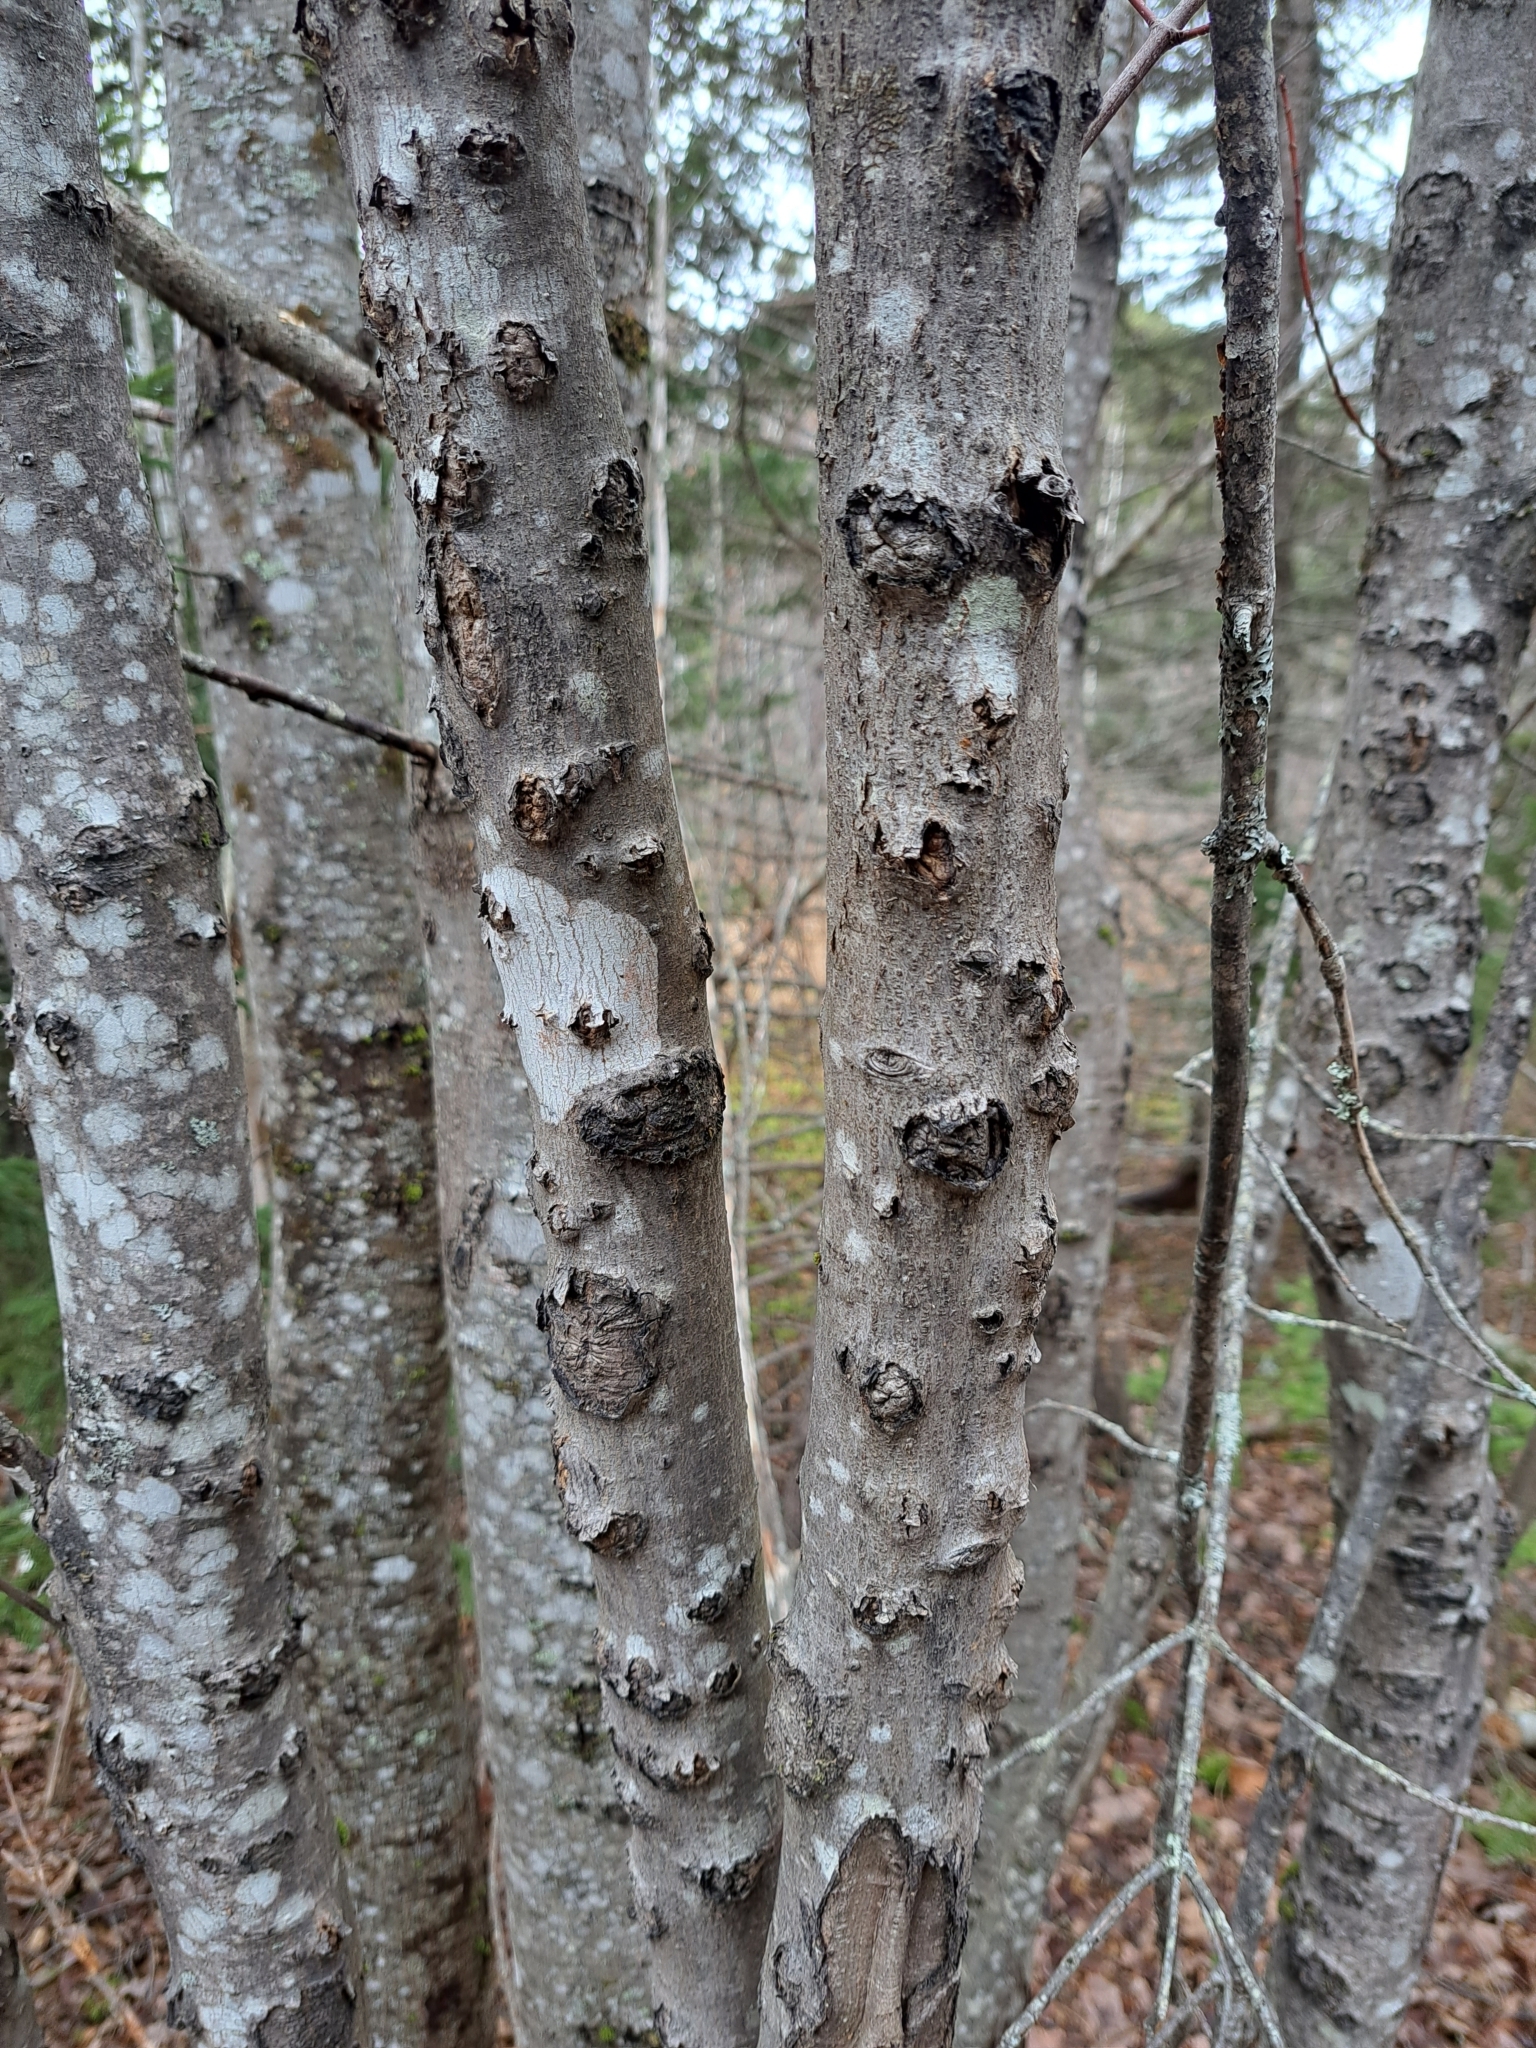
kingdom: Plantae
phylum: Tracheophyta
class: Magnoliopsida
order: Sapindales
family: Sapindaceae
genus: Acer
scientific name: Acer rubrum
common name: Red maple
